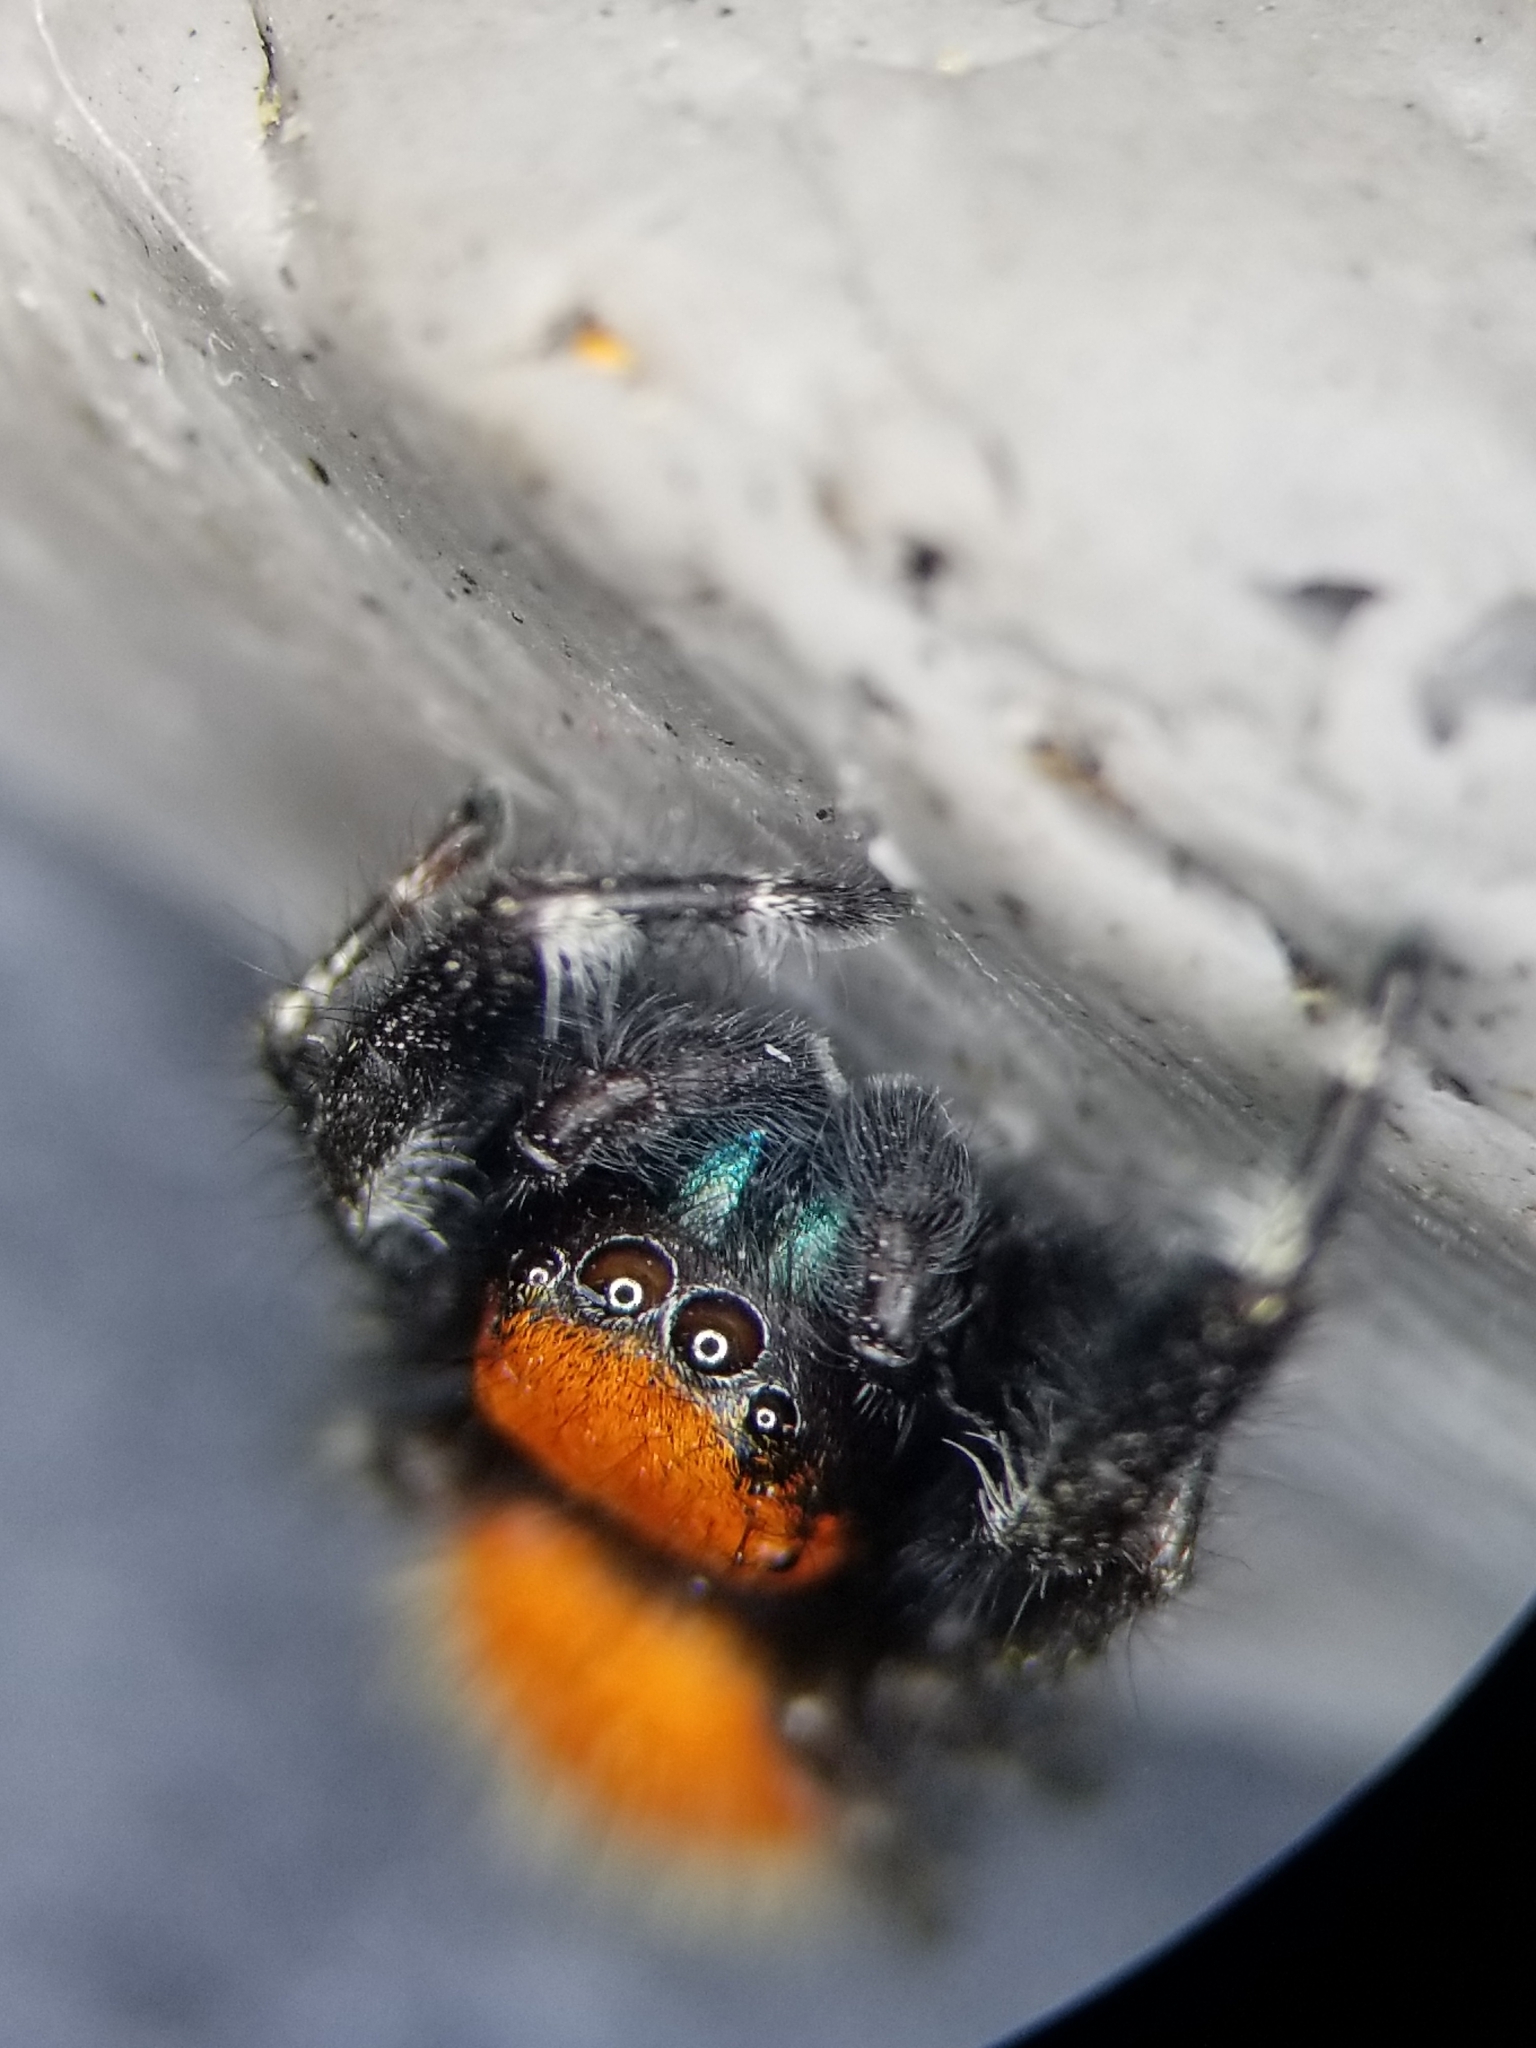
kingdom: Animalia
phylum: Arthropoda
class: Arachnida
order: Araneae
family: Salticidae
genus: Phidippus
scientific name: Phidippus apacheanus
